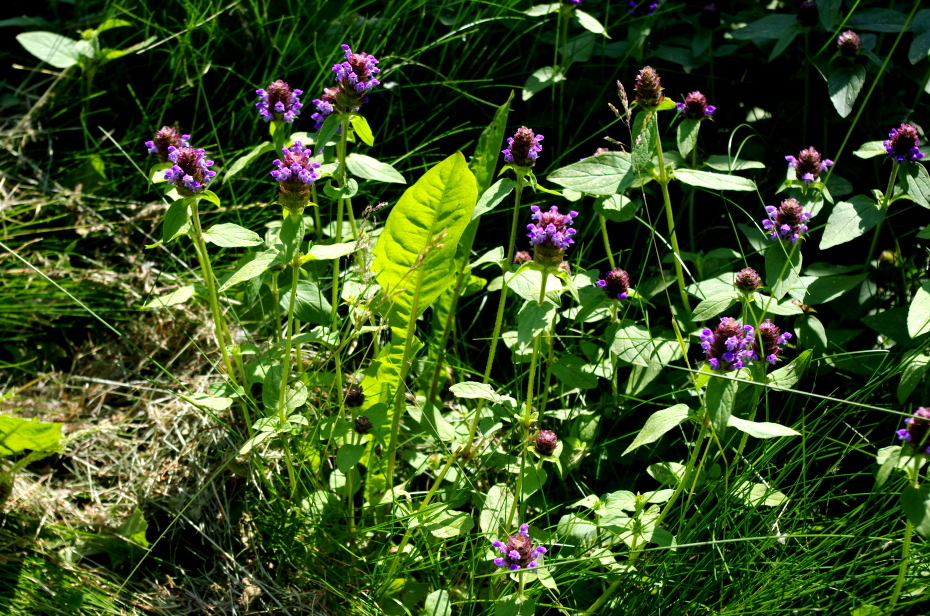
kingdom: Plantae
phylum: Tracheophyta
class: Magnoliopsida
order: Lamiales
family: Lamiaceae
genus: Prunella
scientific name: Prunella vulgaris
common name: Heal-all
